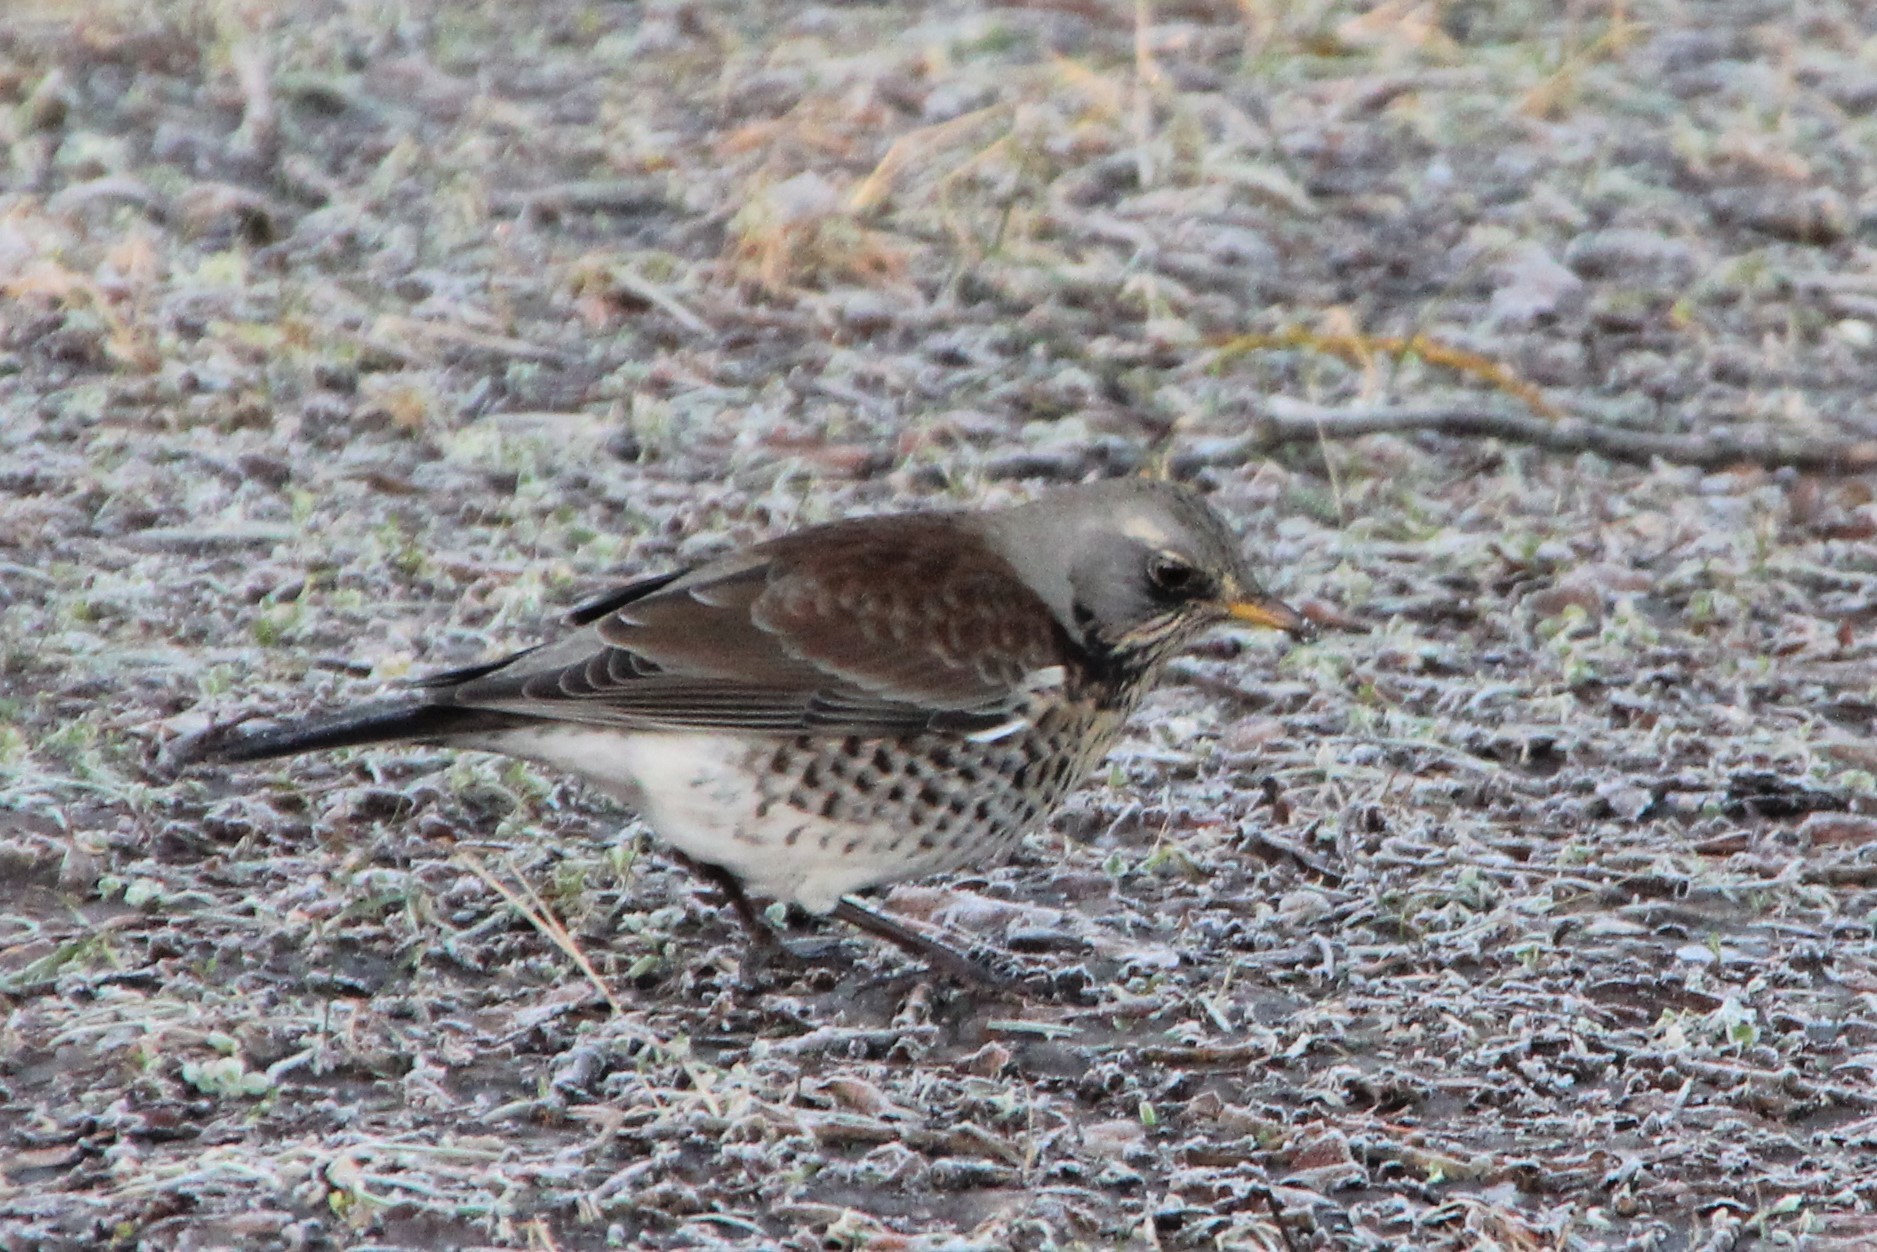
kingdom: Animalia
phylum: Chordata
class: Aves
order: Passeriformes
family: Turdidae
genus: Turdus
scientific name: Turdus pilaris
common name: Fieldfare
